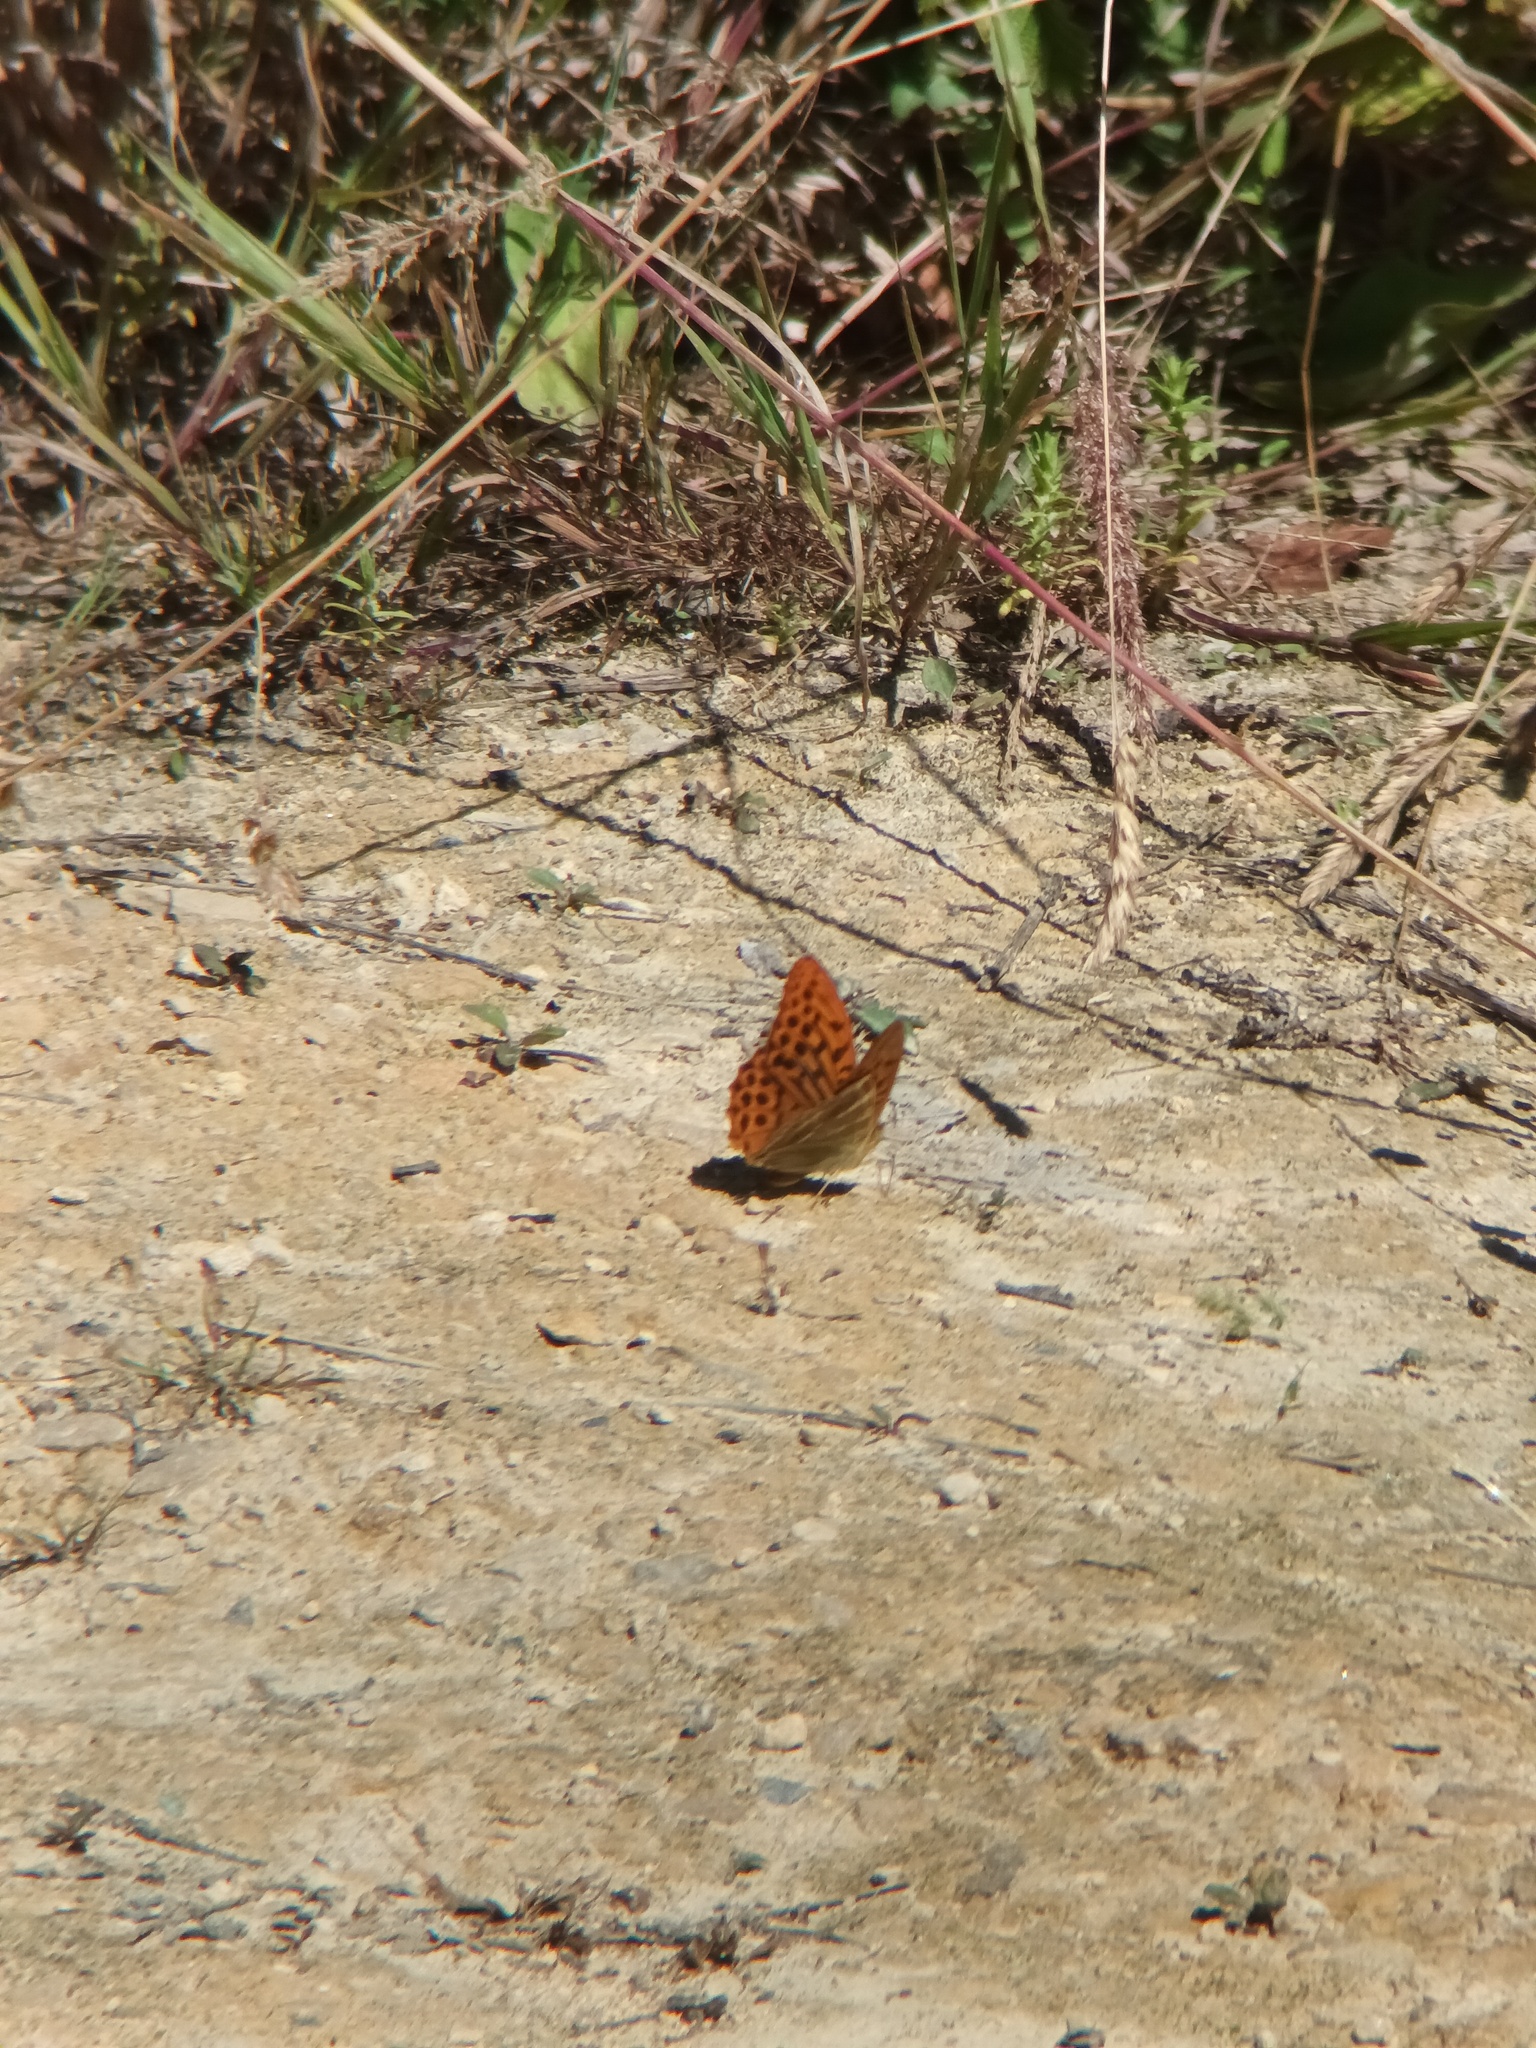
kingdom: Animalia
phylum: Arthropoda
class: Insecta
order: Lepidoptera
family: Nymphalidae
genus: Argynnis
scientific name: Argynnis paphia
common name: Silver-washed fritillary
